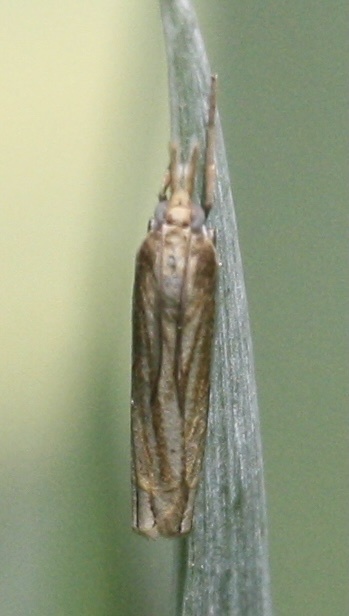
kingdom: Animalia
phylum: Arthropoda
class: Insecta
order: Lepidoptera
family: Crambidae
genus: Crambus
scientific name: Crambus
